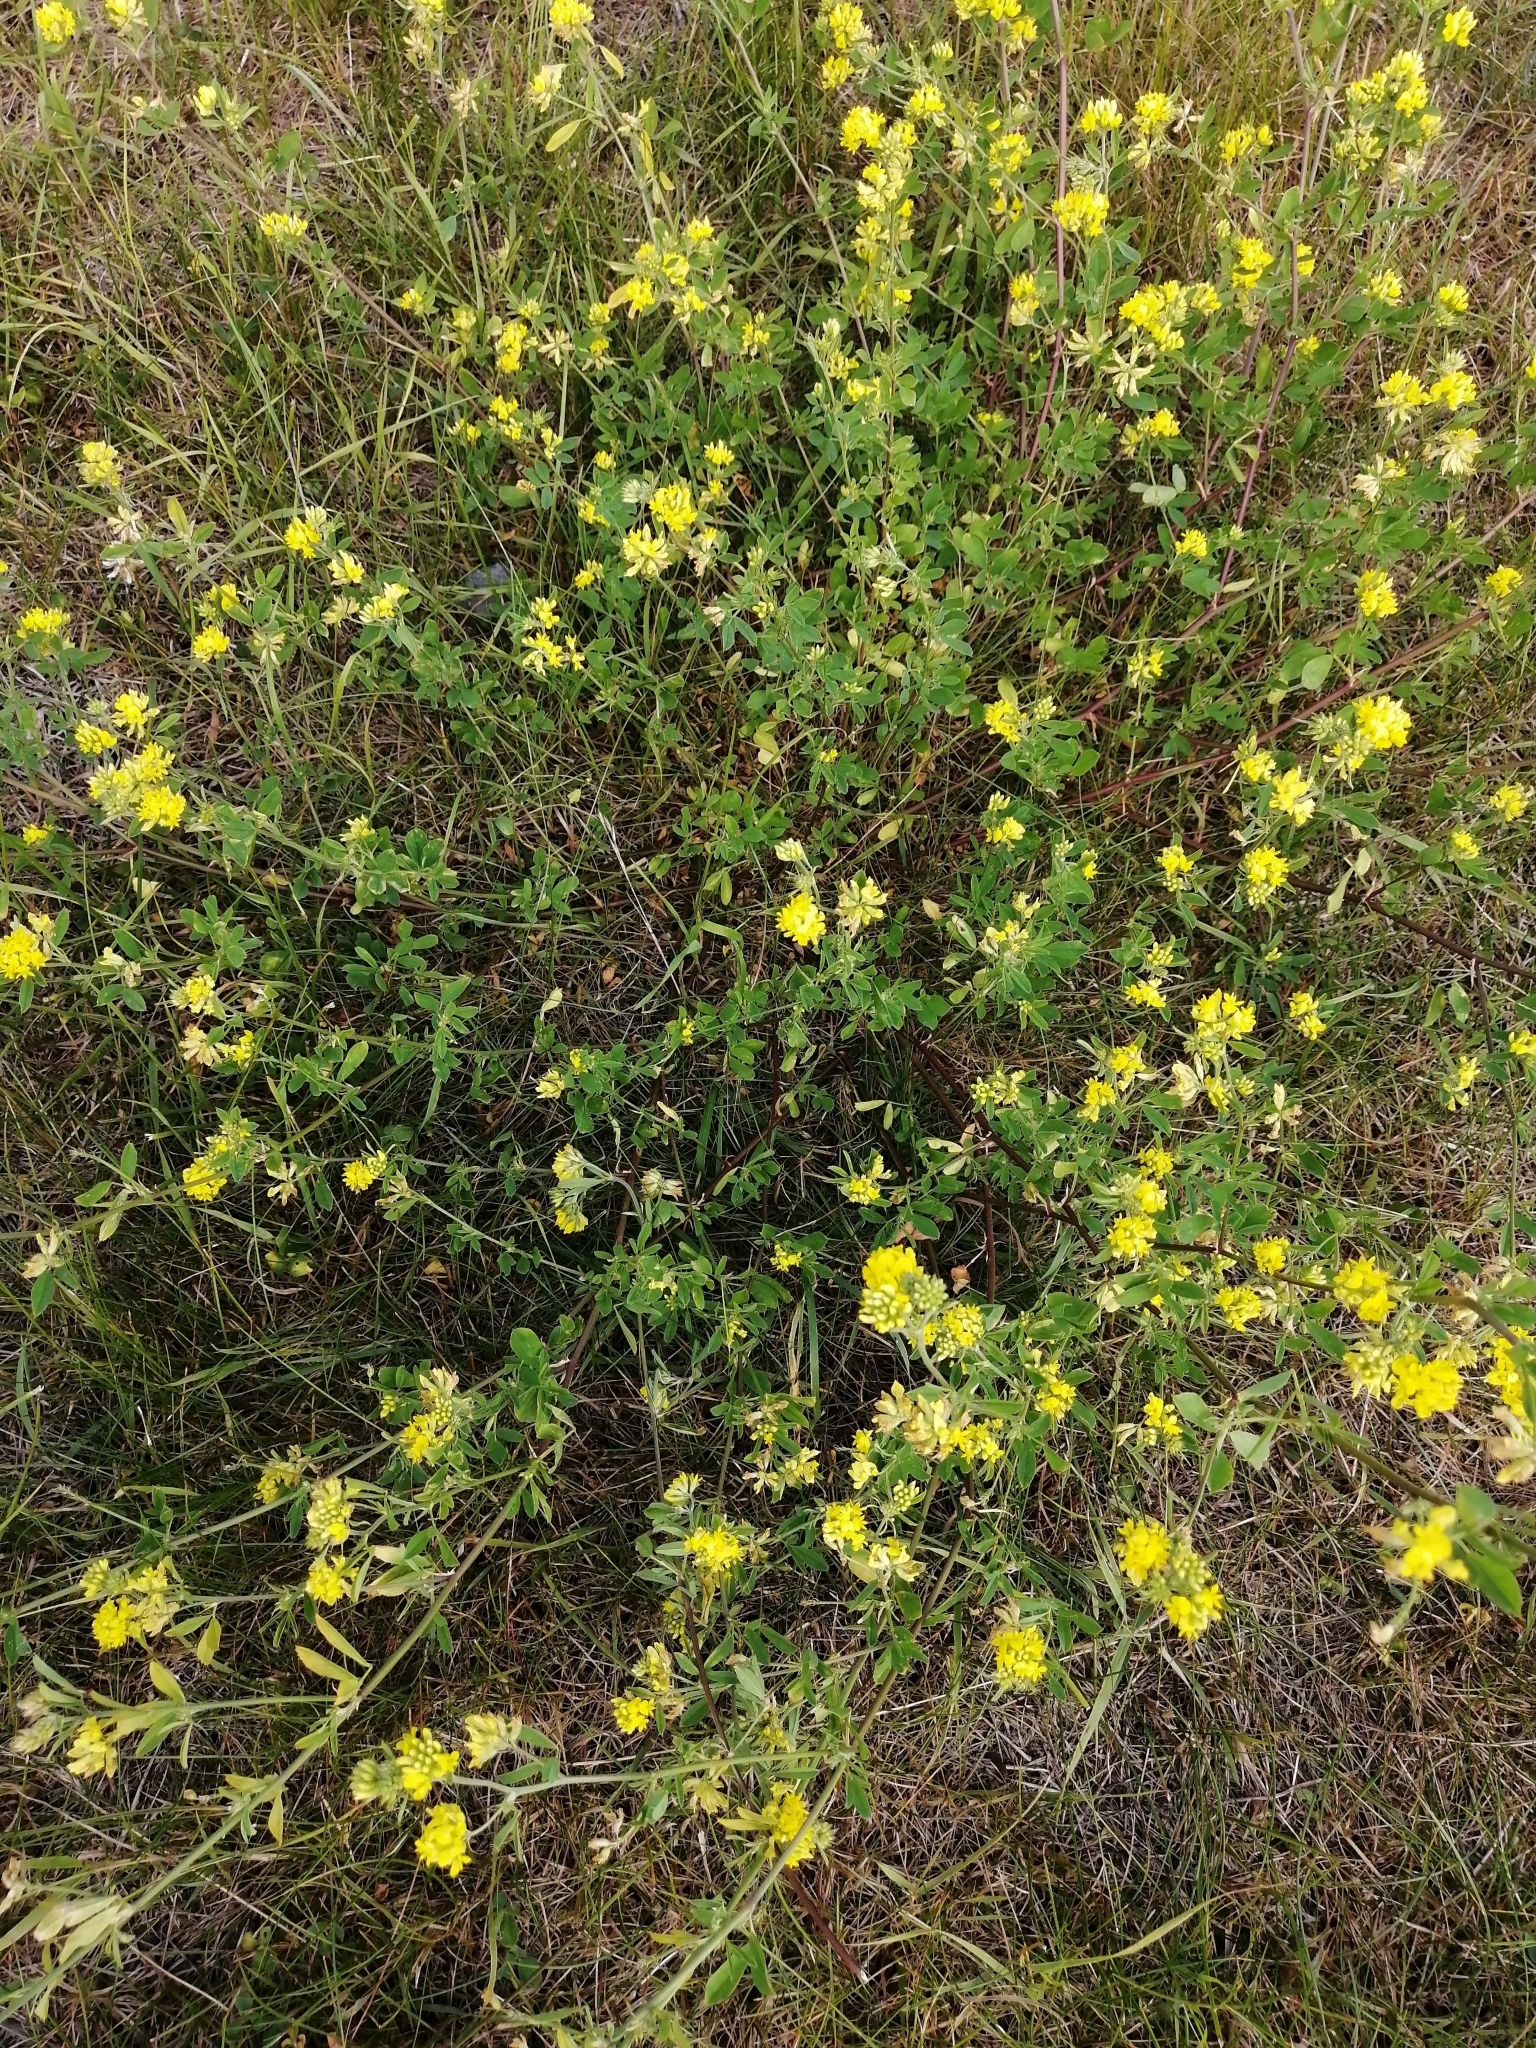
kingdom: Plantae
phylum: Tracheophyta
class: Magnoliopsida
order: Fabales
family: Fabaceae
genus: Medicago
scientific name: Medicago varia
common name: Sand lucerne
